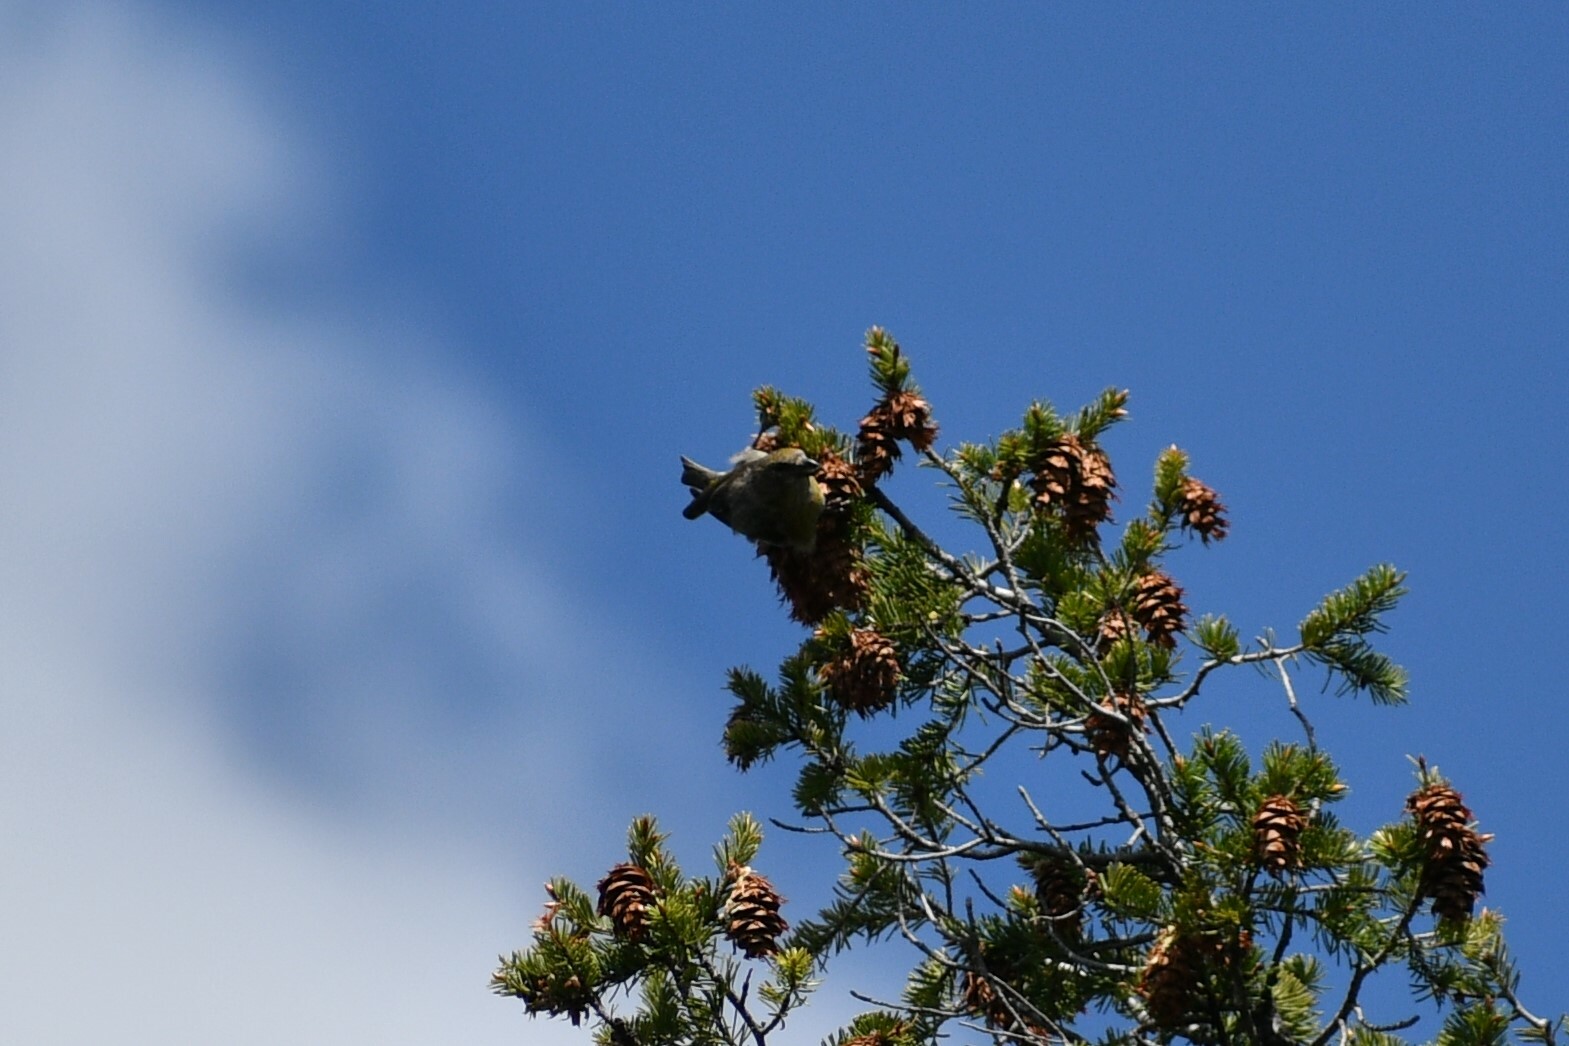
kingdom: Animalia
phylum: Chordata
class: Aves
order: Passeriformes
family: Fringillidae
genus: Loxia
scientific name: Loxia curvirostra
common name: Red crossbill
